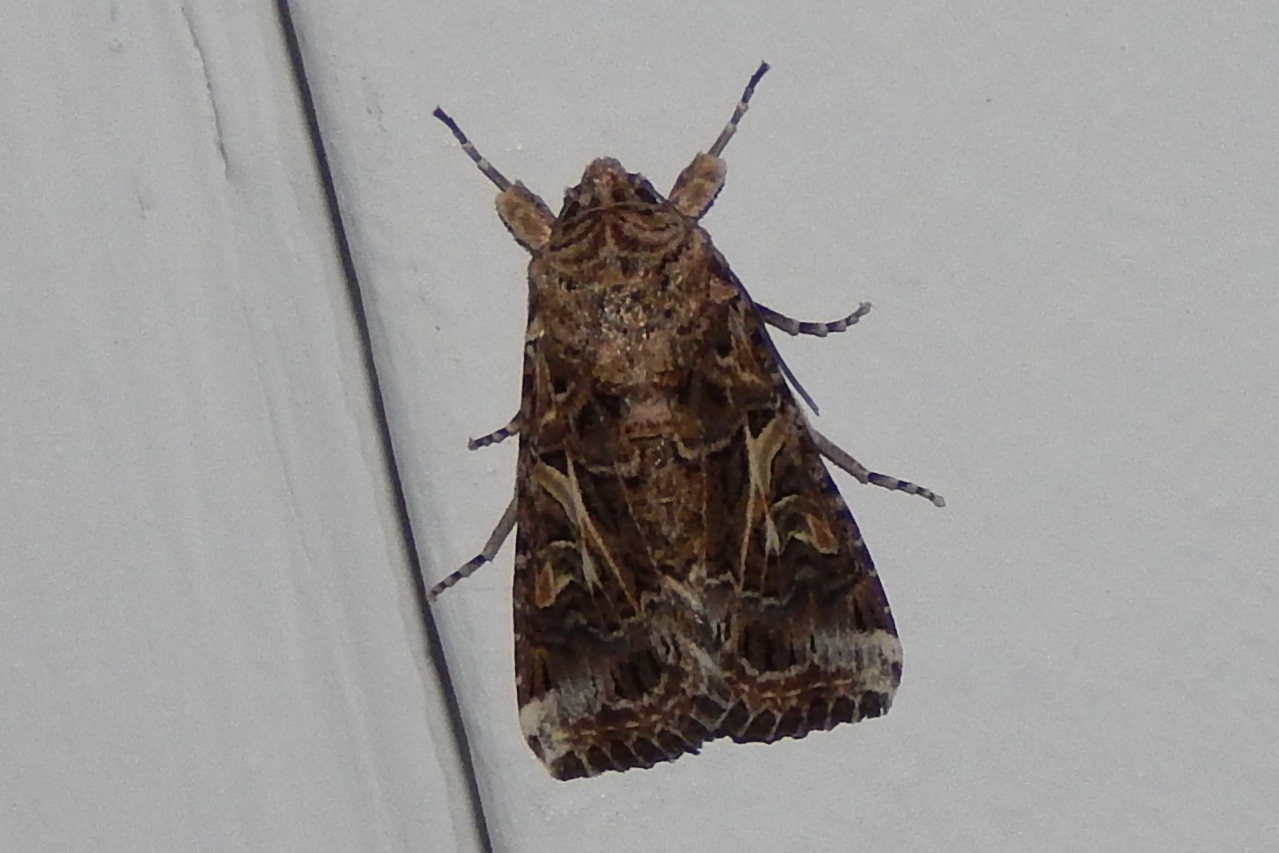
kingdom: Animalia
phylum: Arthropoda
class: Insecta
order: Lepidoptera
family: Noctuidae
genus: Spodoptera
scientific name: Spodoptera ornithogalli
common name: Yellow-striped armyworm
